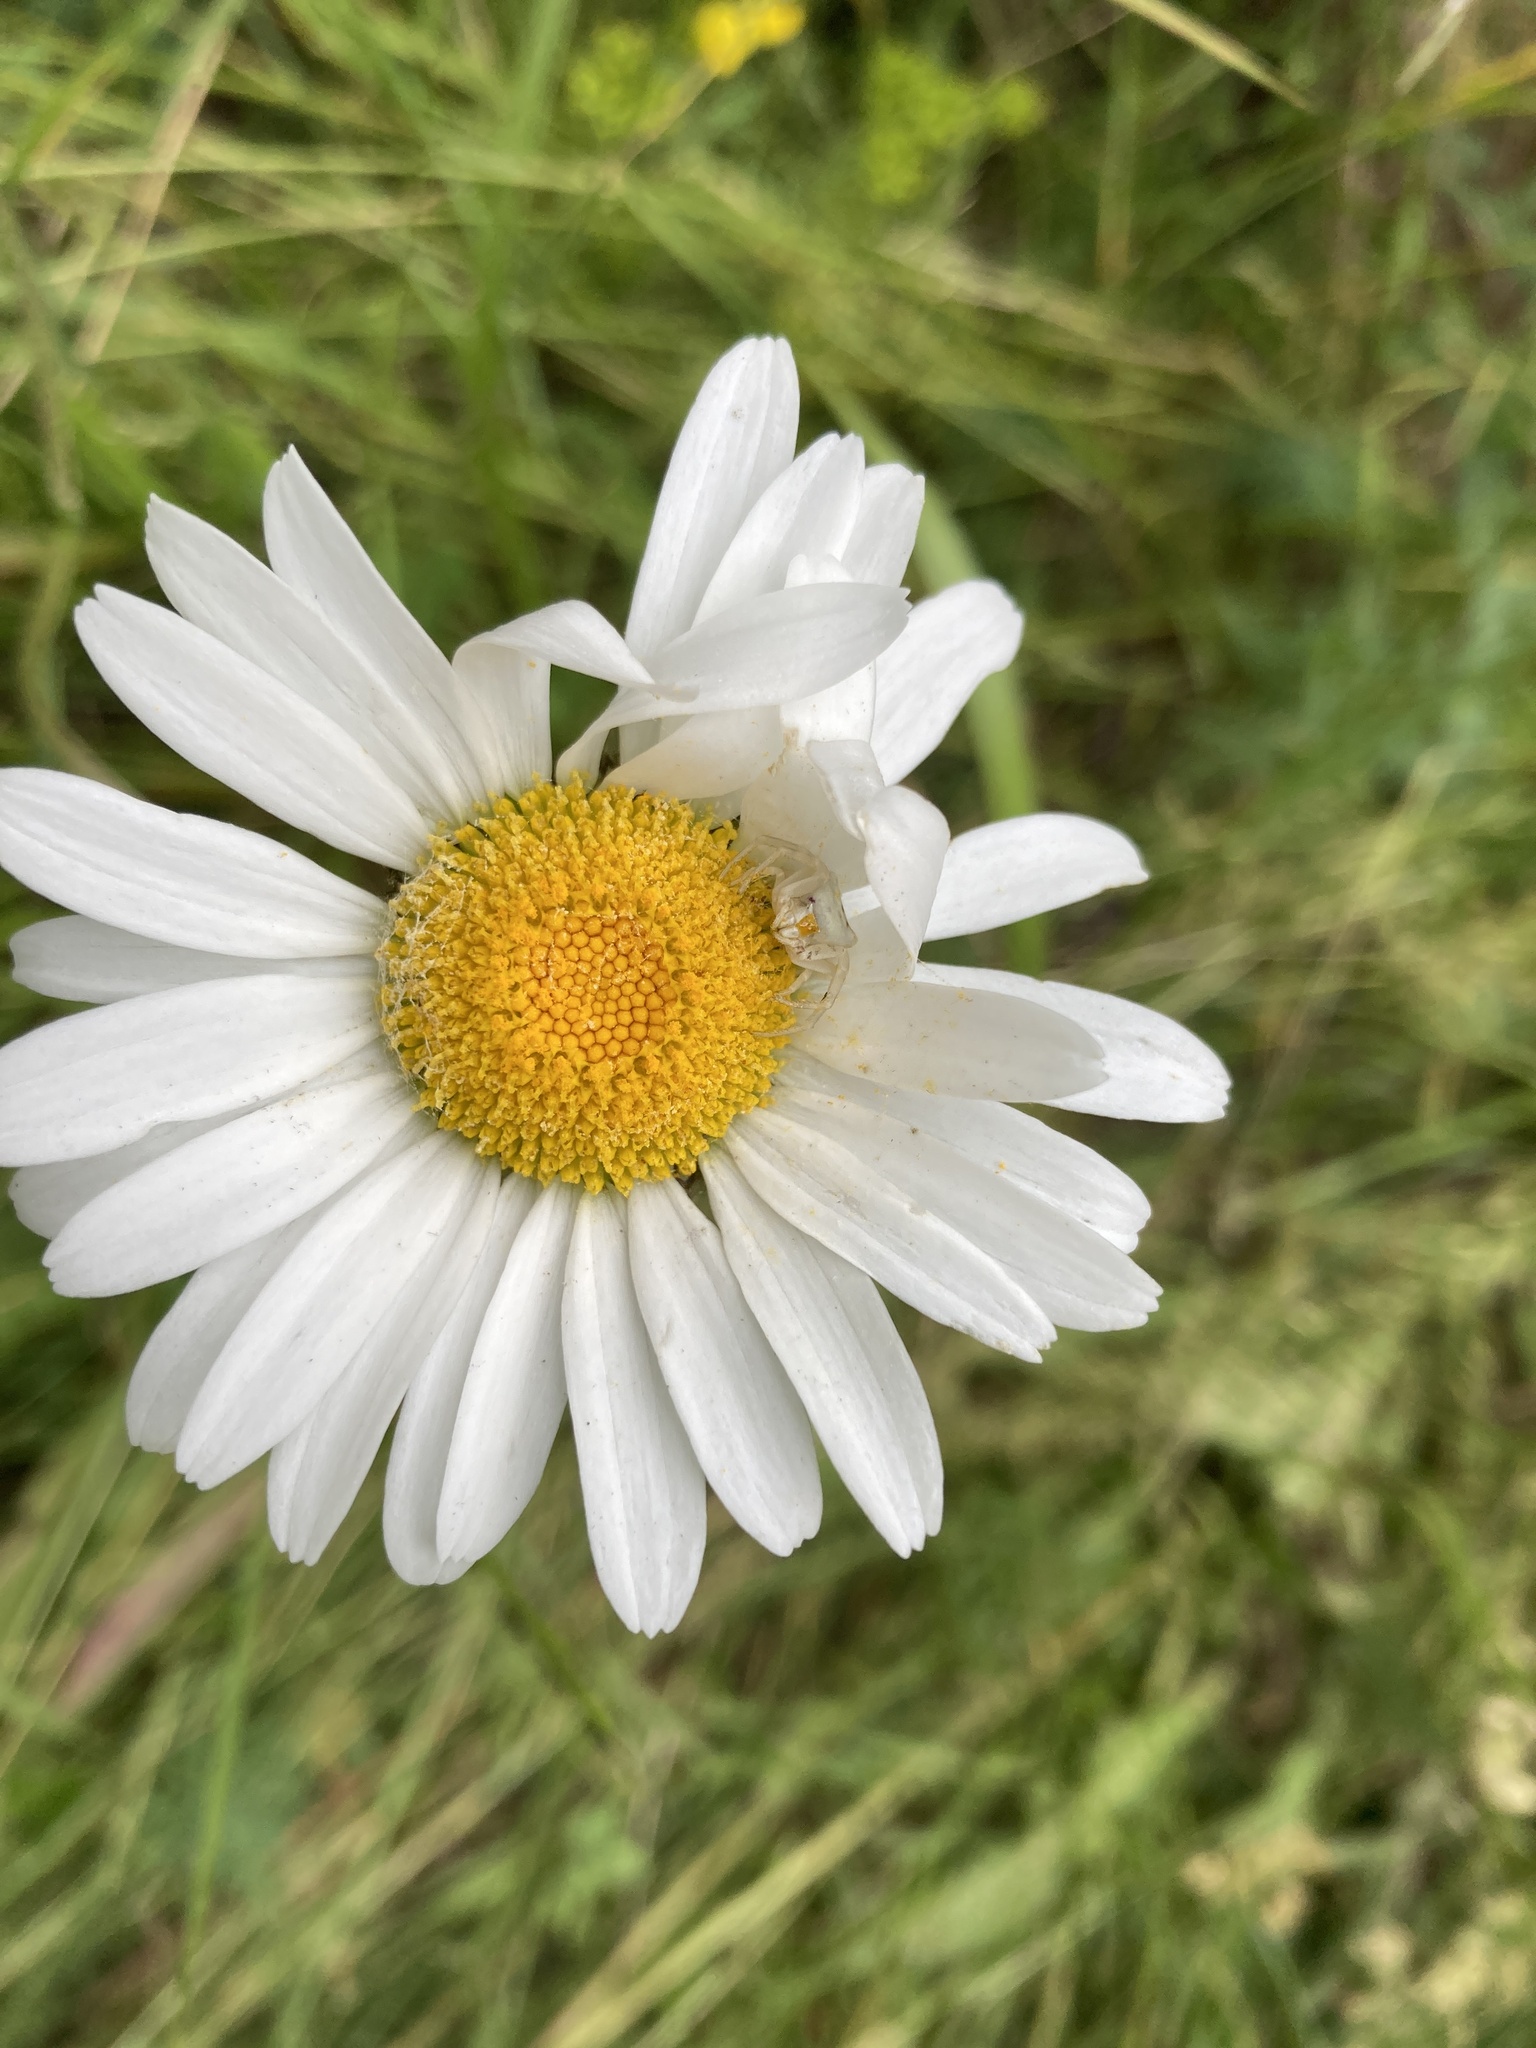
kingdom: Animalia
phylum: Arthropoda
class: Arachnida
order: Araneae
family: Thomisidae
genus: Thomisus
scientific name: Thomisus onustus
